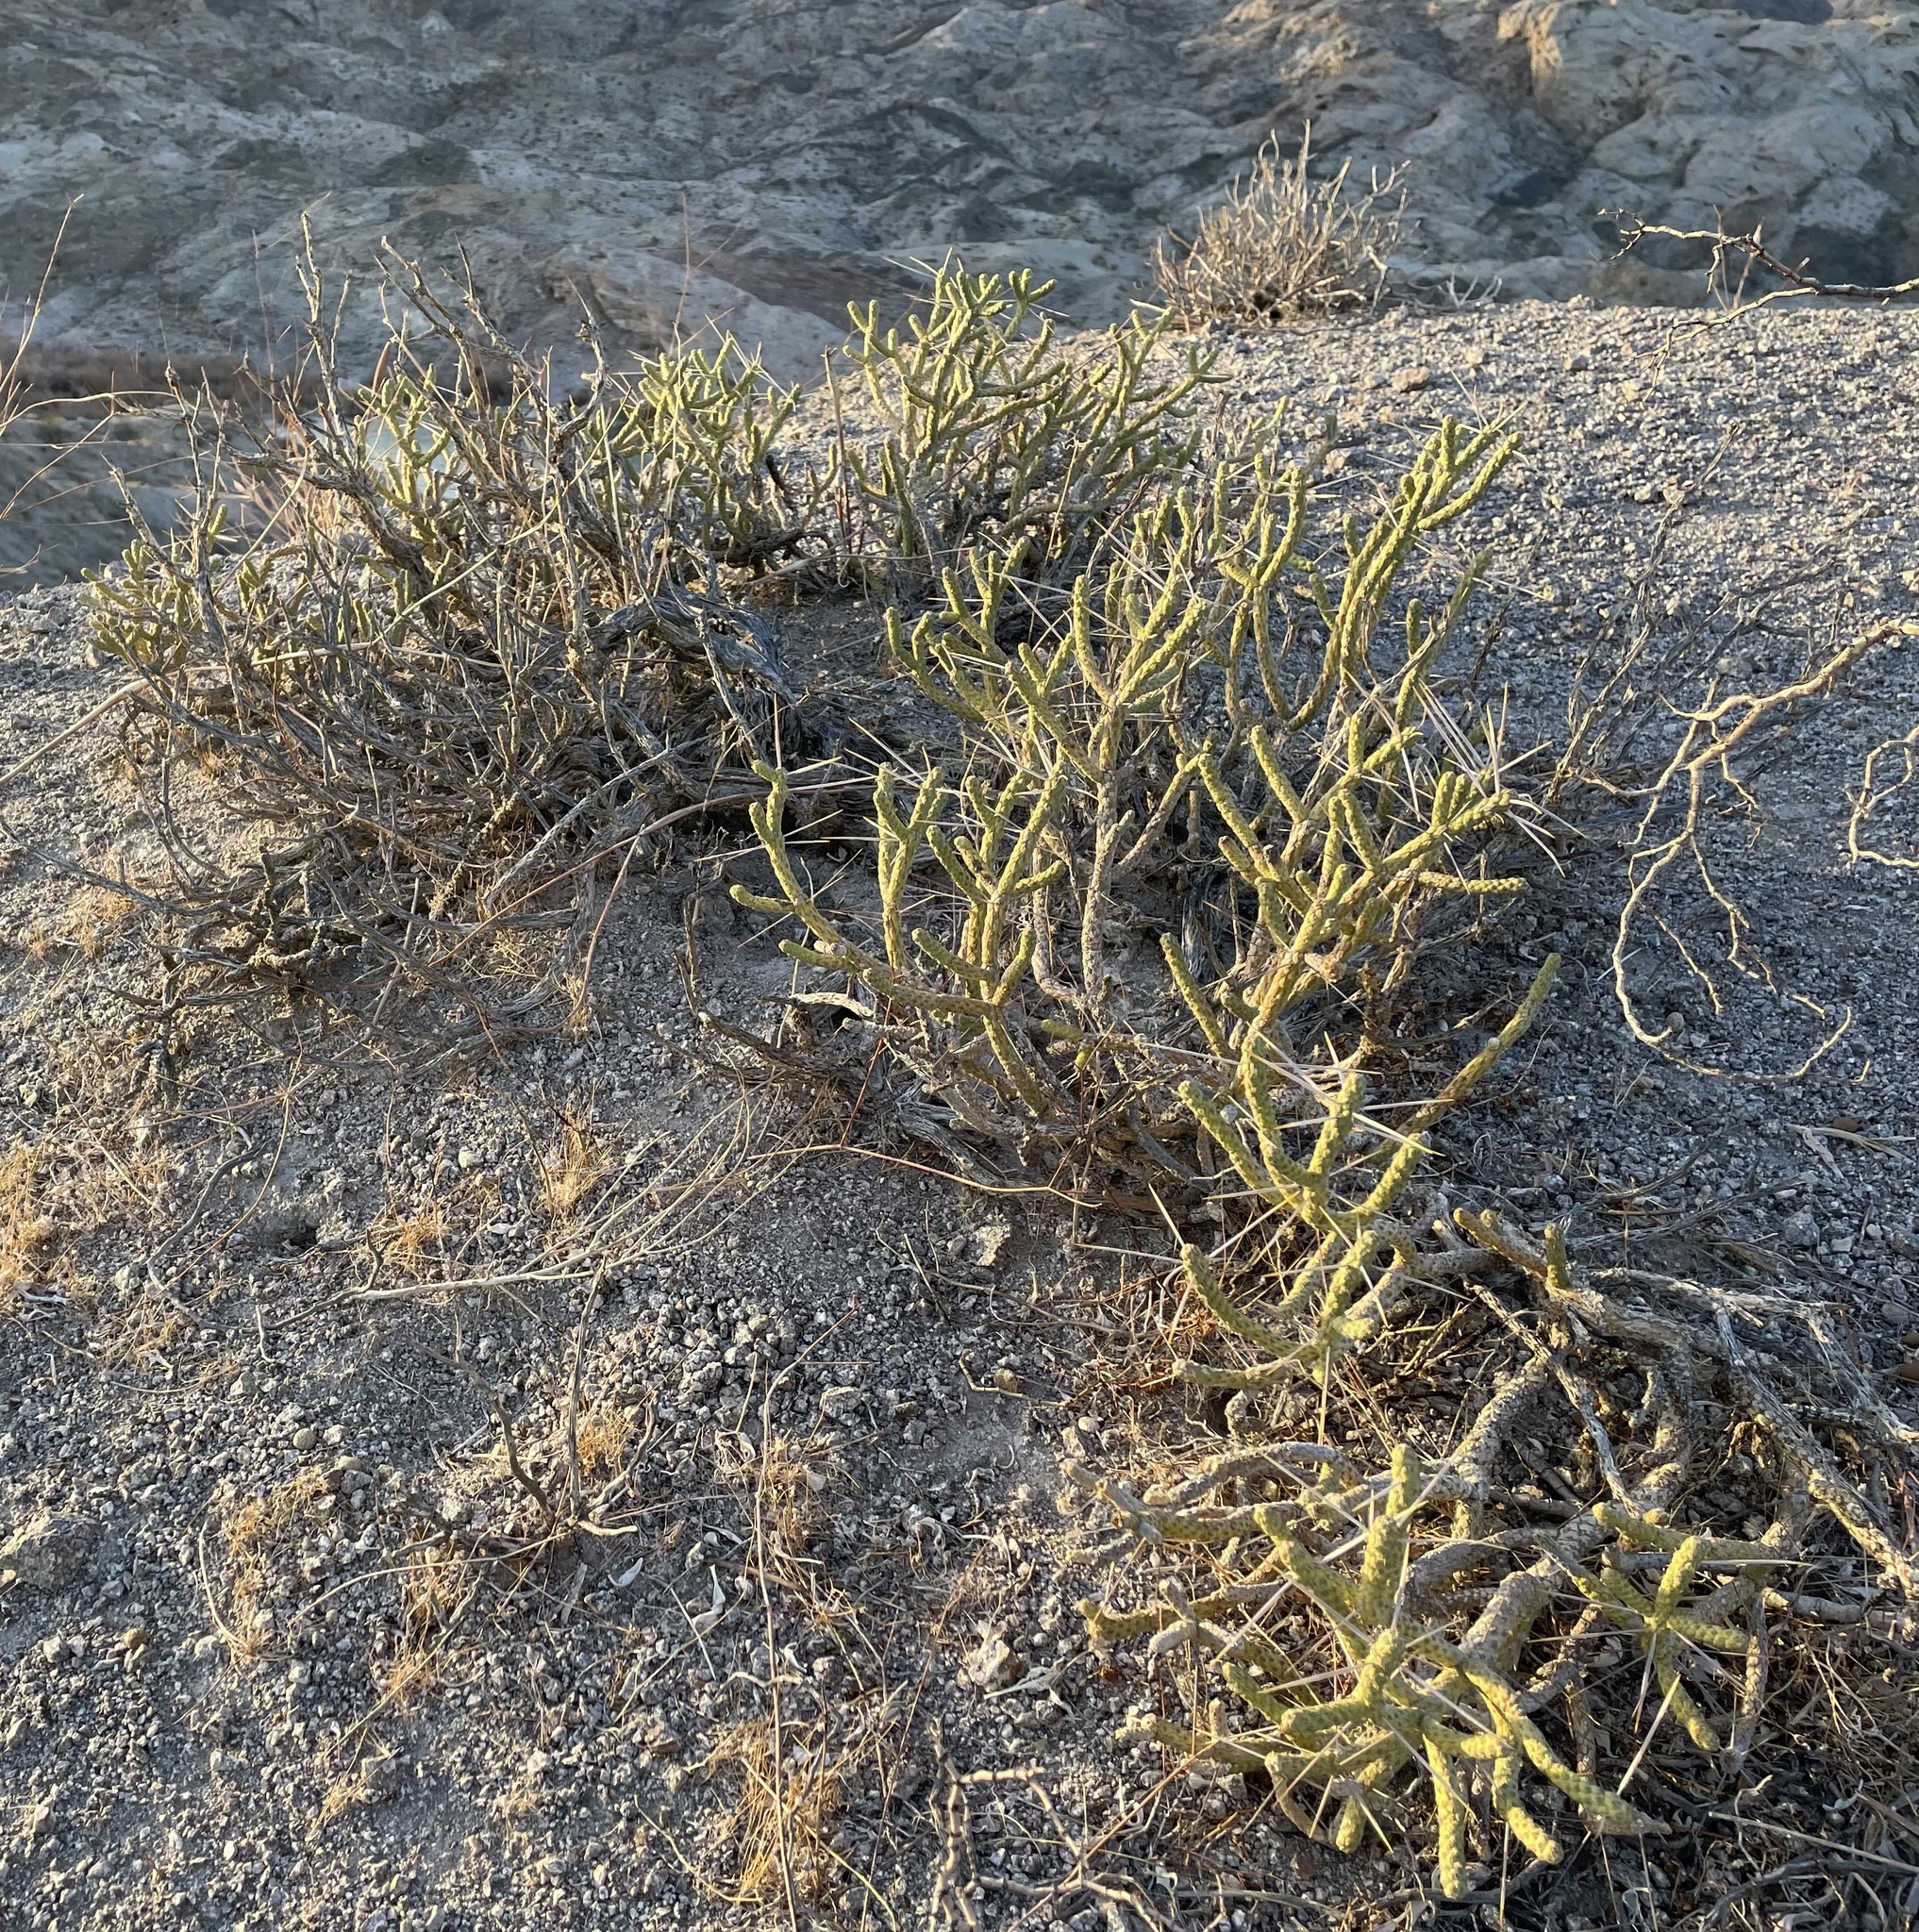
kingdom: Plantae
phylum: Tracheophyta
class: Magnoliopsida
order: Caryophyllales
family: Cactaceae
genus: Cylindropuntia
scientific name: Cylindropuntia ramosissima
